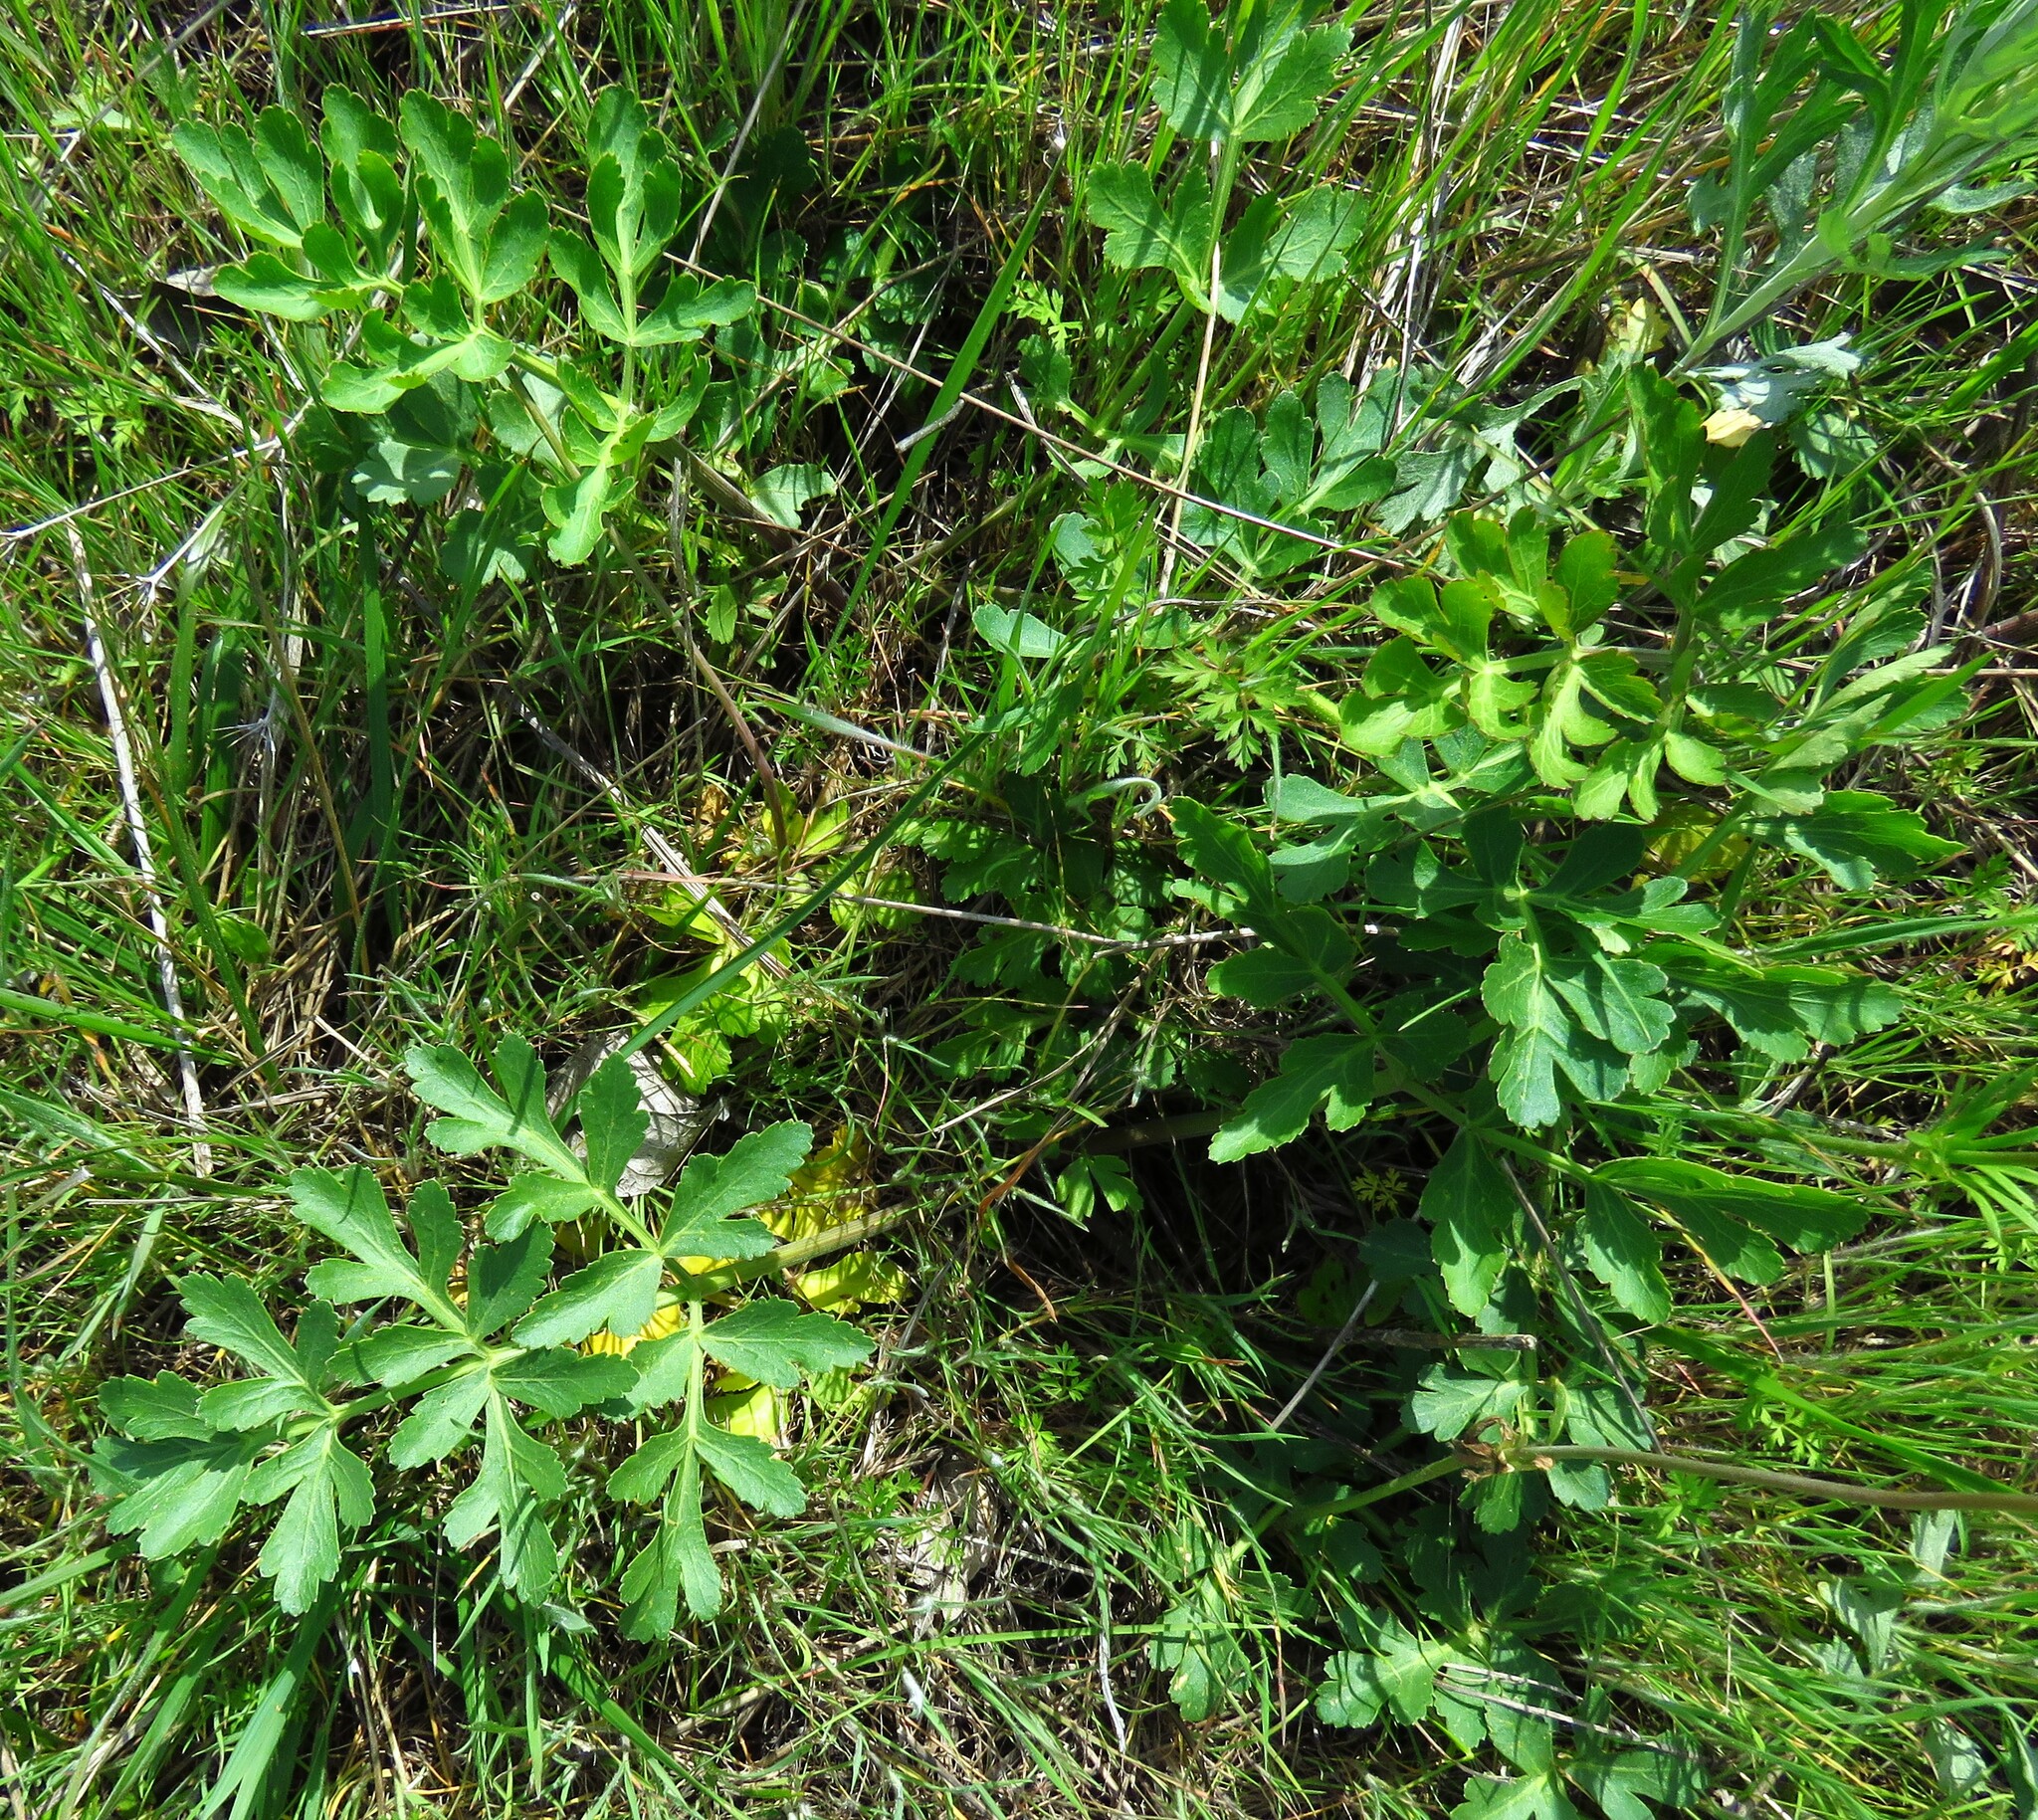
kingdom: Plantae
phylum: Tracheophyta
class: Magnoliopsida
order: Apiales
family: Apiaceae
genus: Polytaenia
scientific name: Polytaenia texana
